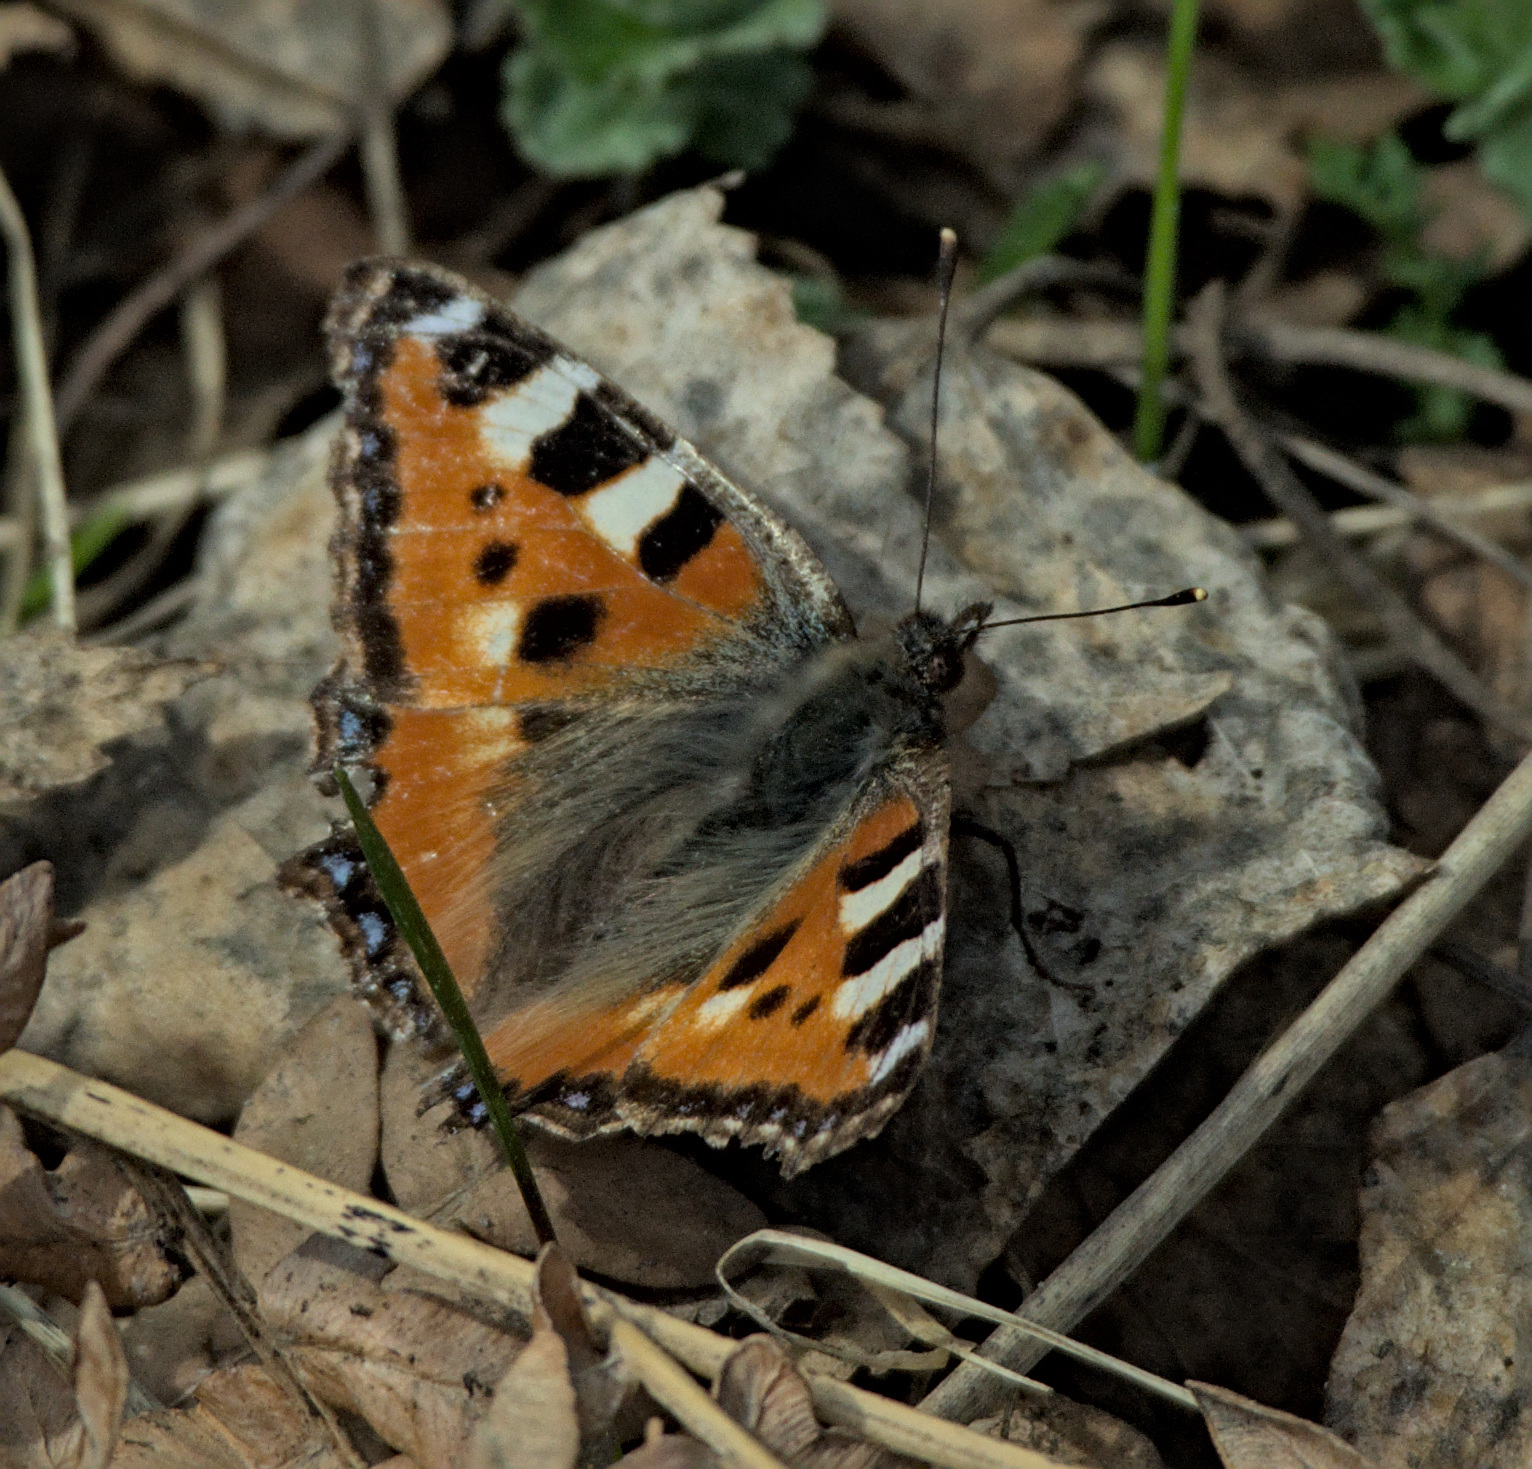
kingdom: Animalia
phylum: Arthropoda
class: Insecta
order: Lepidoptera
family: Nymphalidae
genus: Aglais
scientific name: Aglais urticae
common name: Small tortoiseshell
